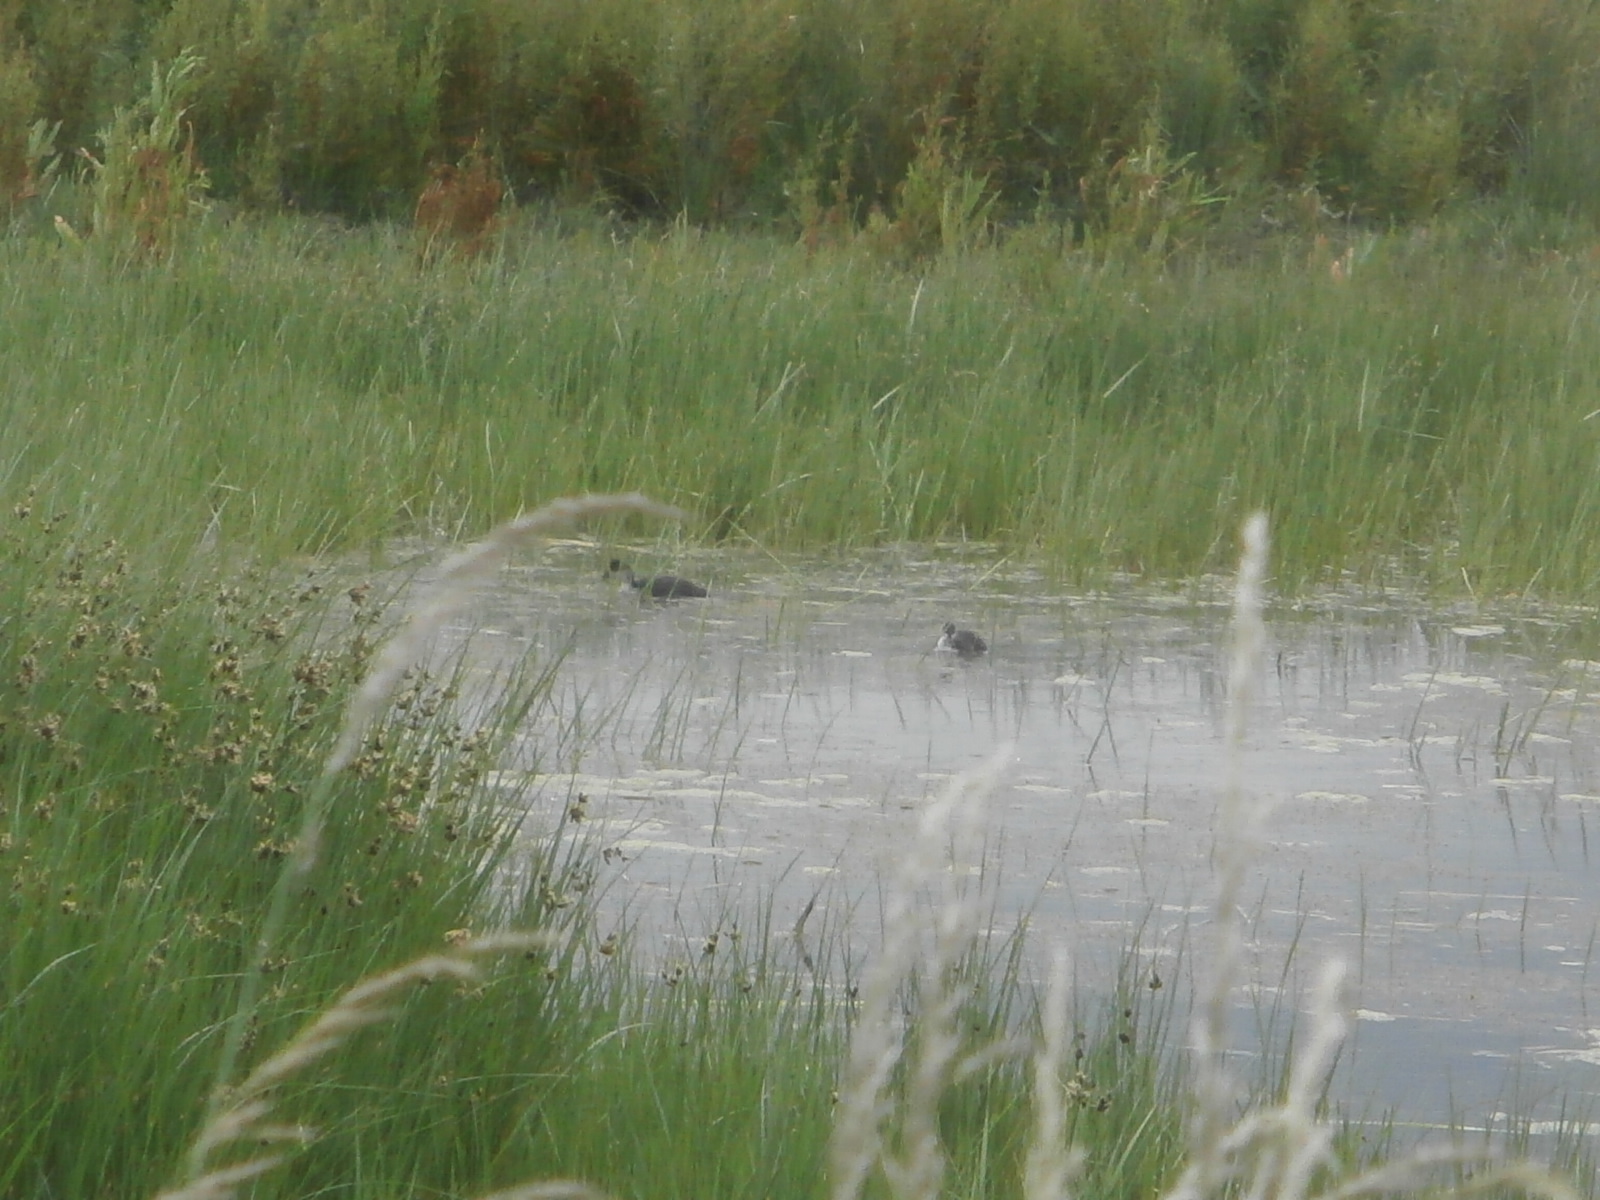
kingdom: Animalia
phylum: Chordata
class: Aves
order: Gruiformes
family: Rallidae
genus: Fulica
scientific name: Fulica atra
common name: Eurasian coot
